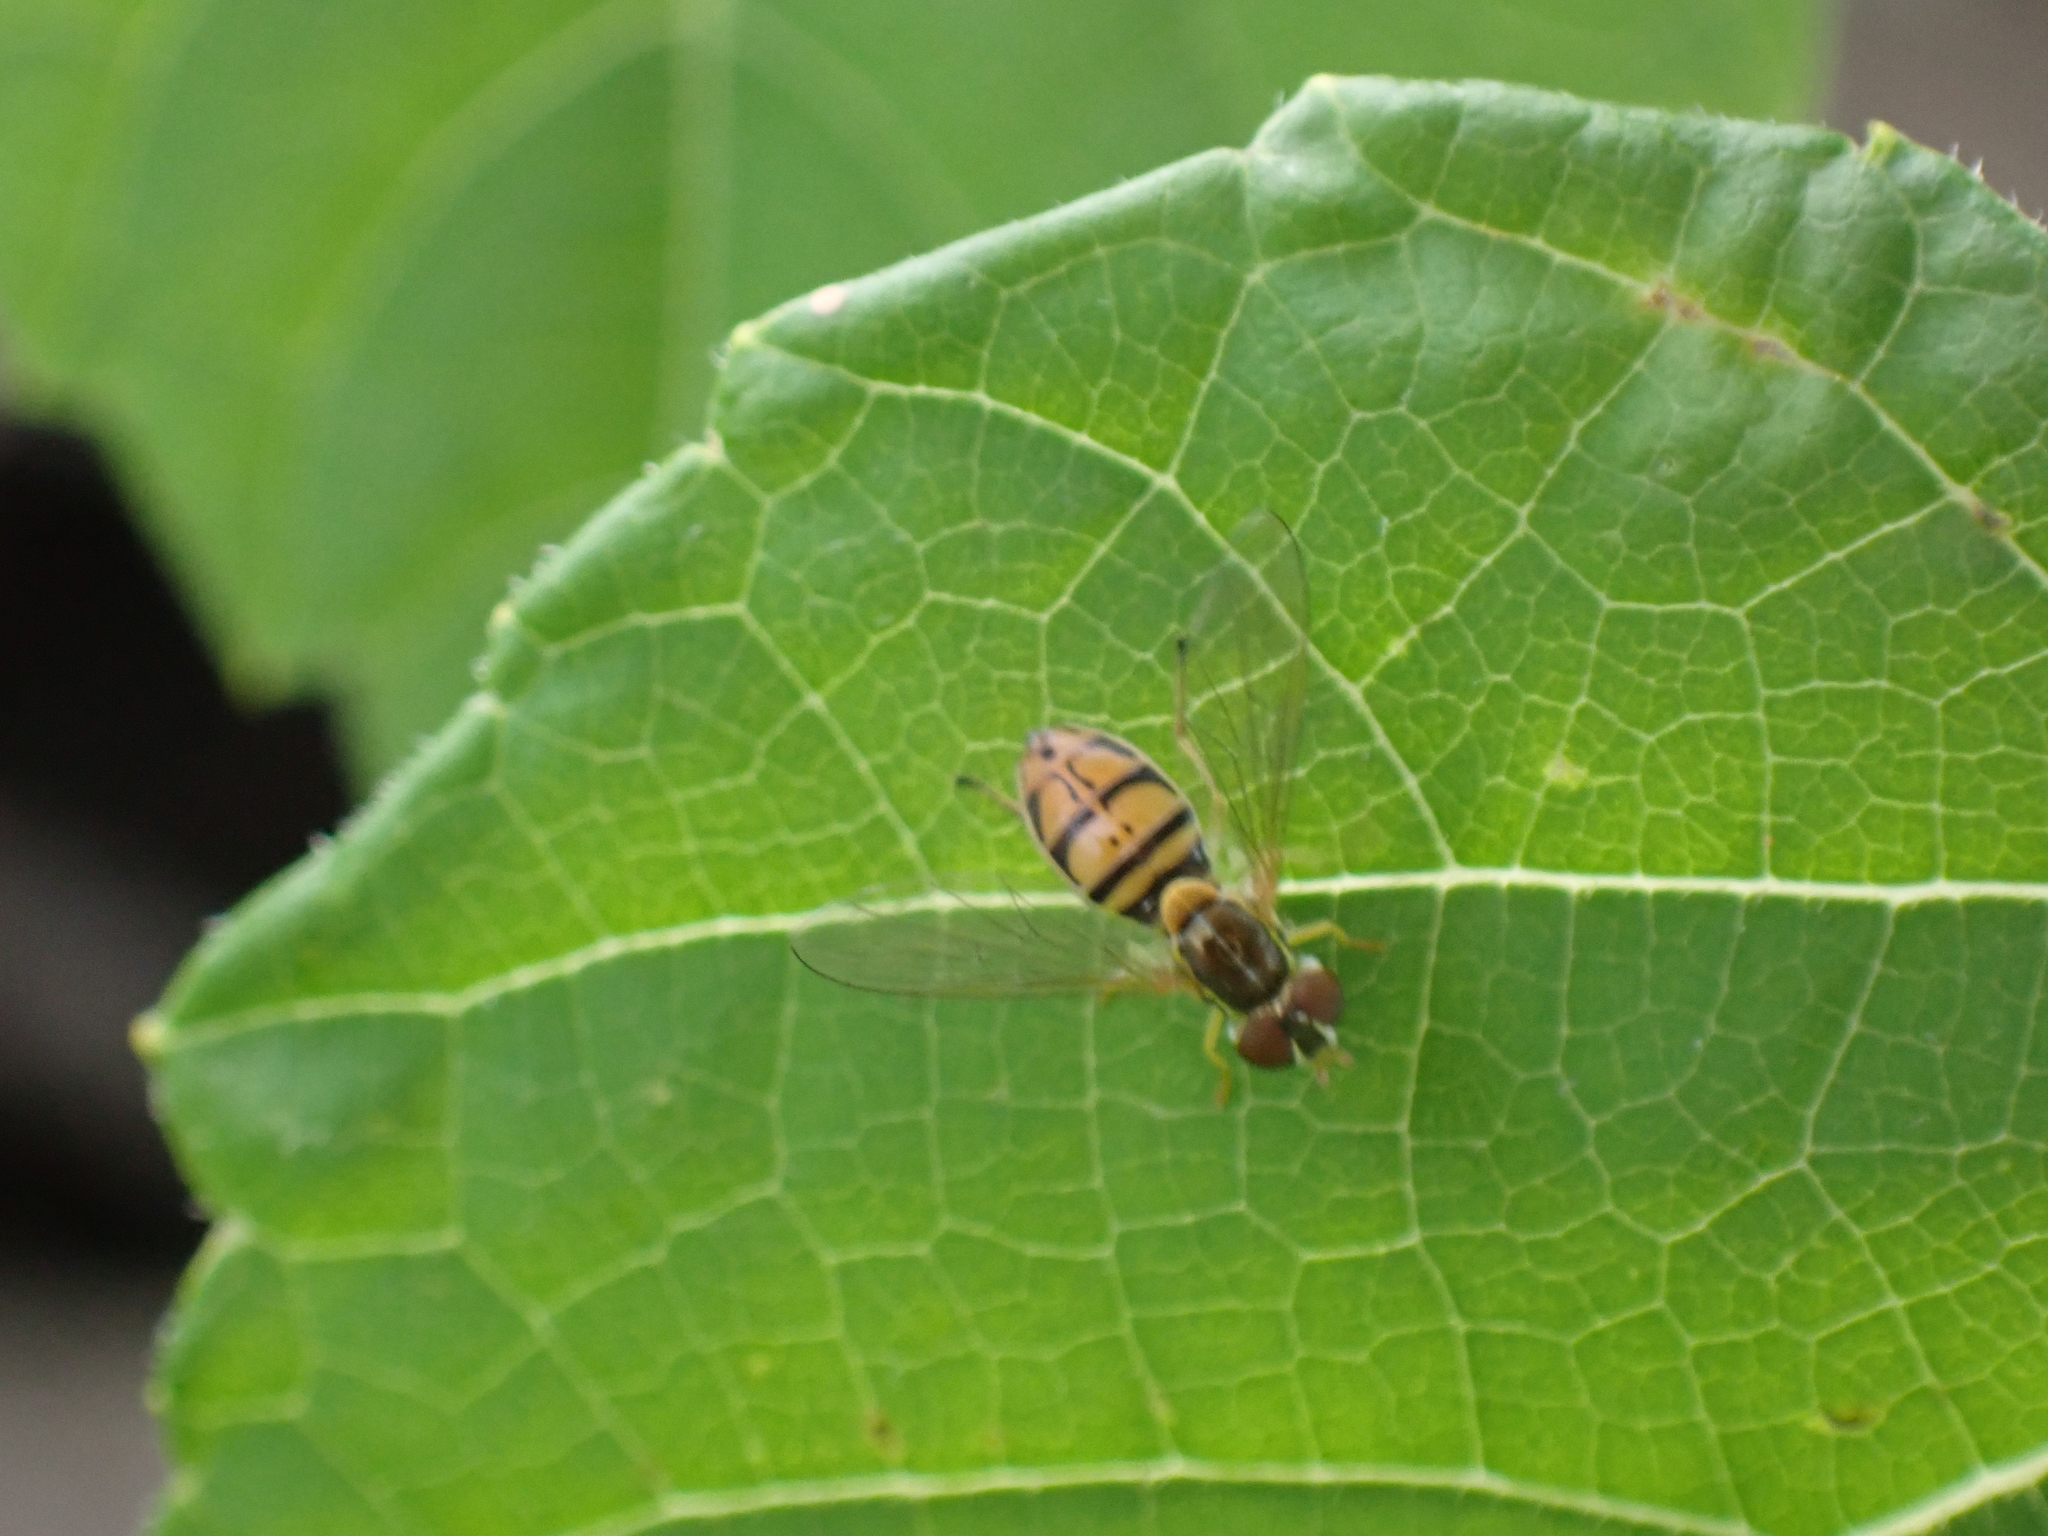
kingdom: Animalia
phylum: Arthropoda
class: Insecta
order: Diptera
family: Syrphidae
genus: Toxomerus
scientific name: Toxomerus marginatus
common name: Syrphid fly
